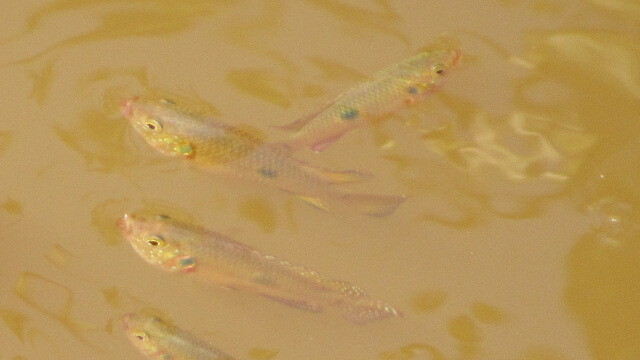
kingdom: Animalia
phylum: Chordata
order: Perciformes
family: Cichlidae
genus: Rubricatochromis
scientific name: Rubricatochromis
